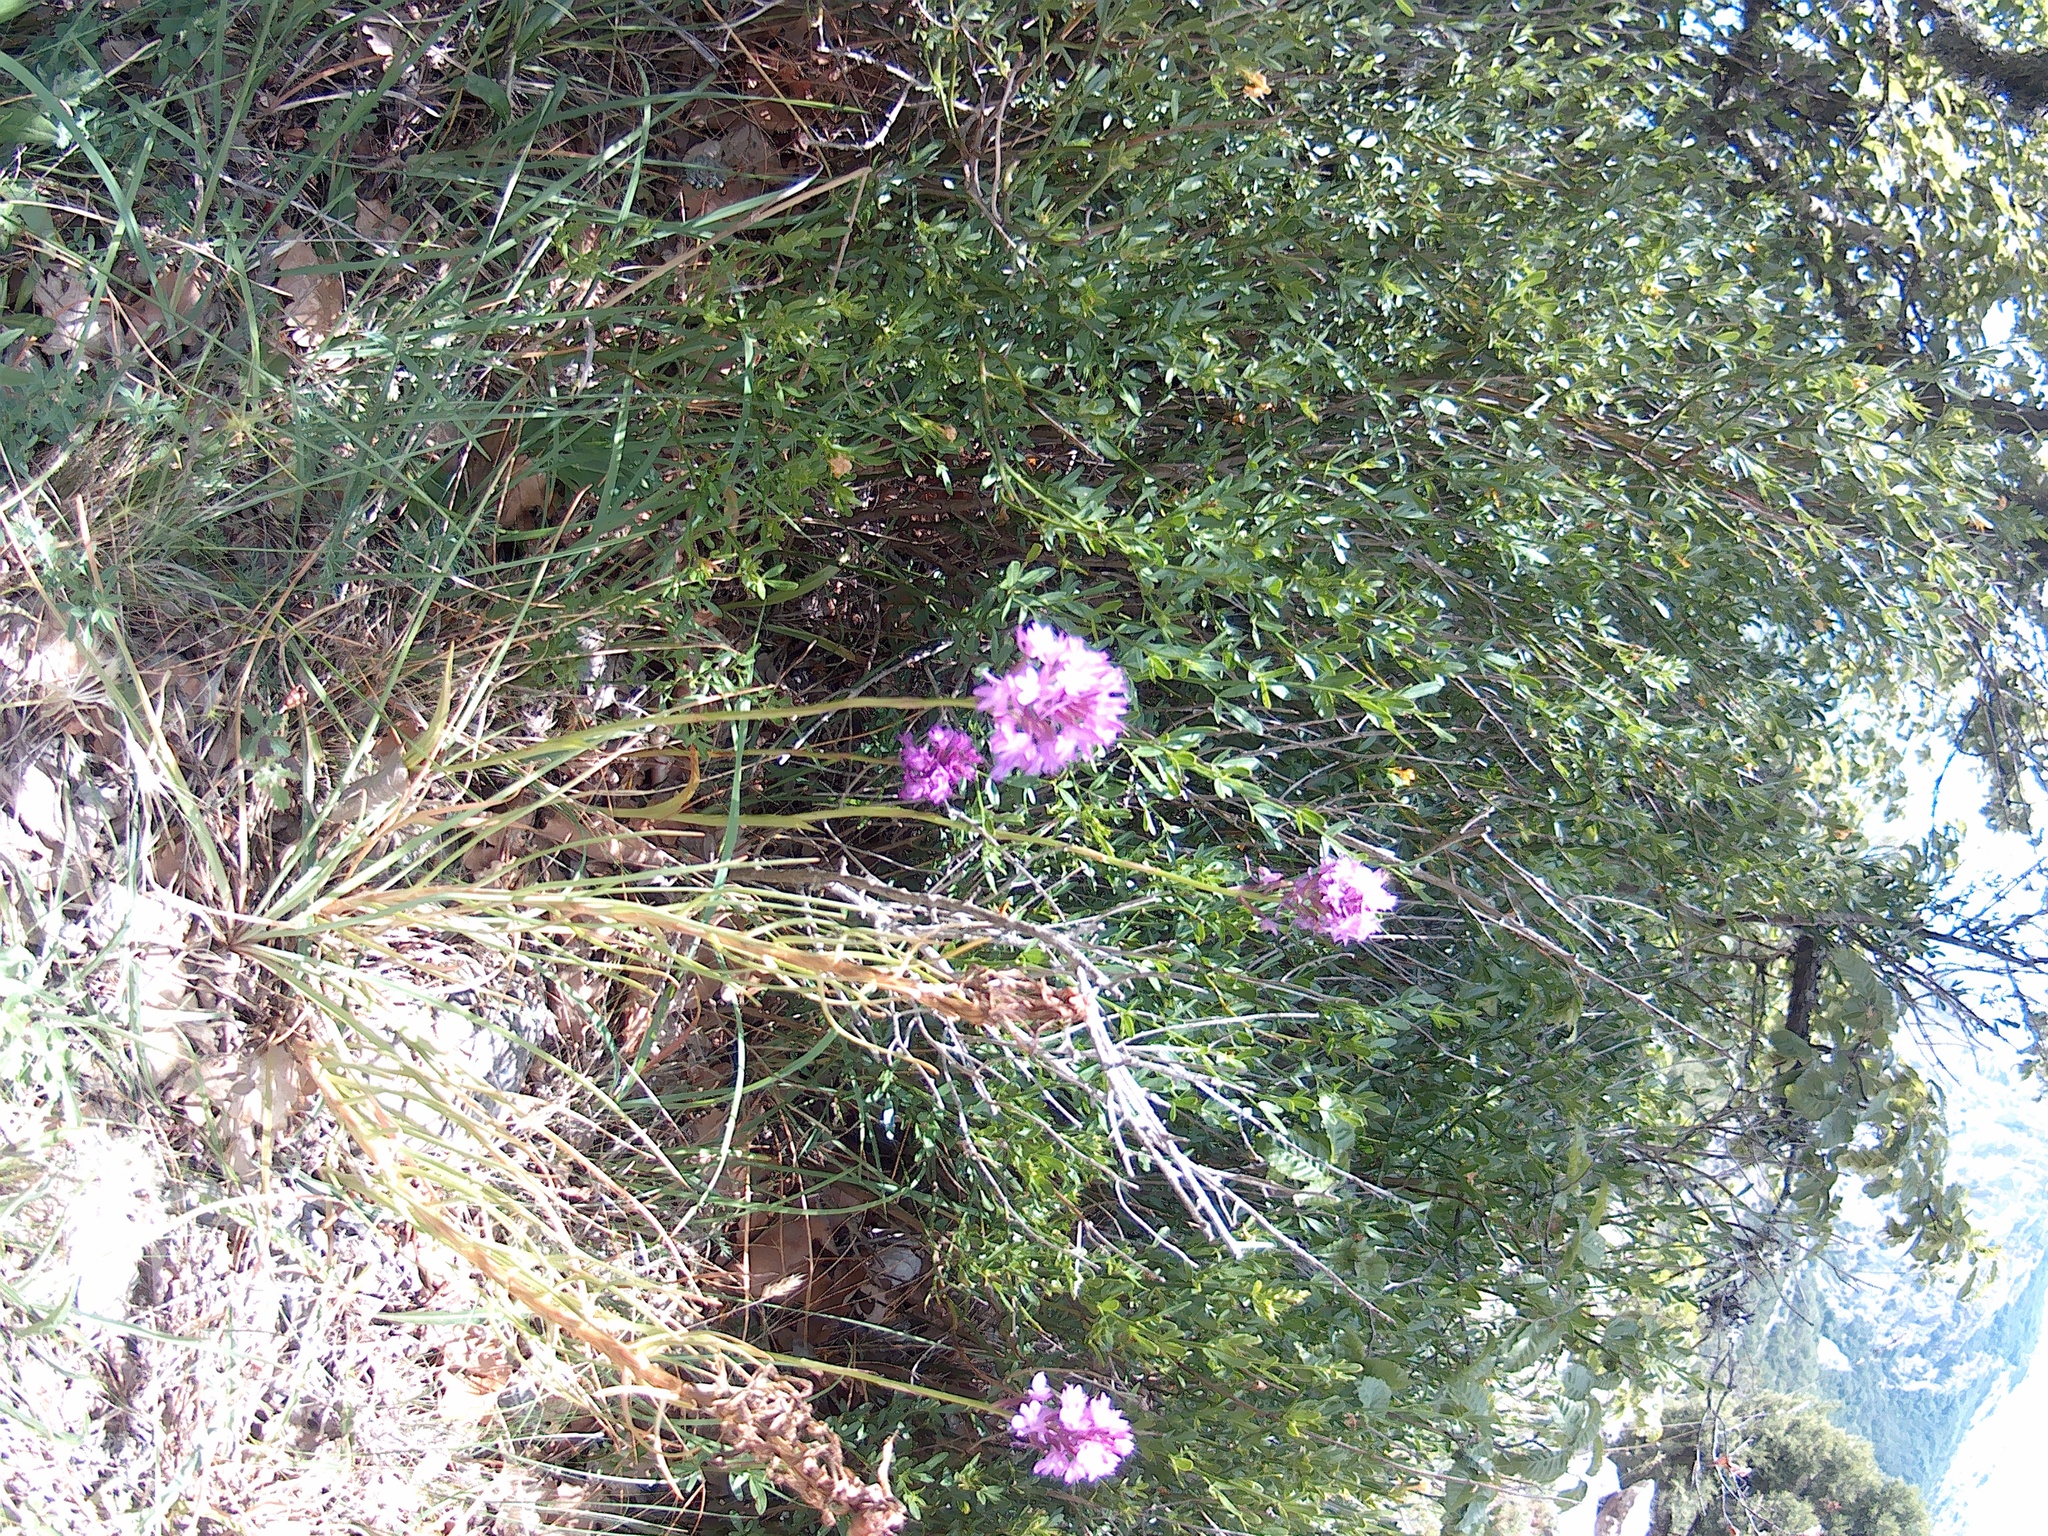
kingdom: Plantae
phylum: Tracheophyta
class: Liliopsida
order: Asparagales
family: Orchidaceae
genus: Anacamptis
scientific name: Anacamptis pyramidalis
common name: Pyramidal orchid
